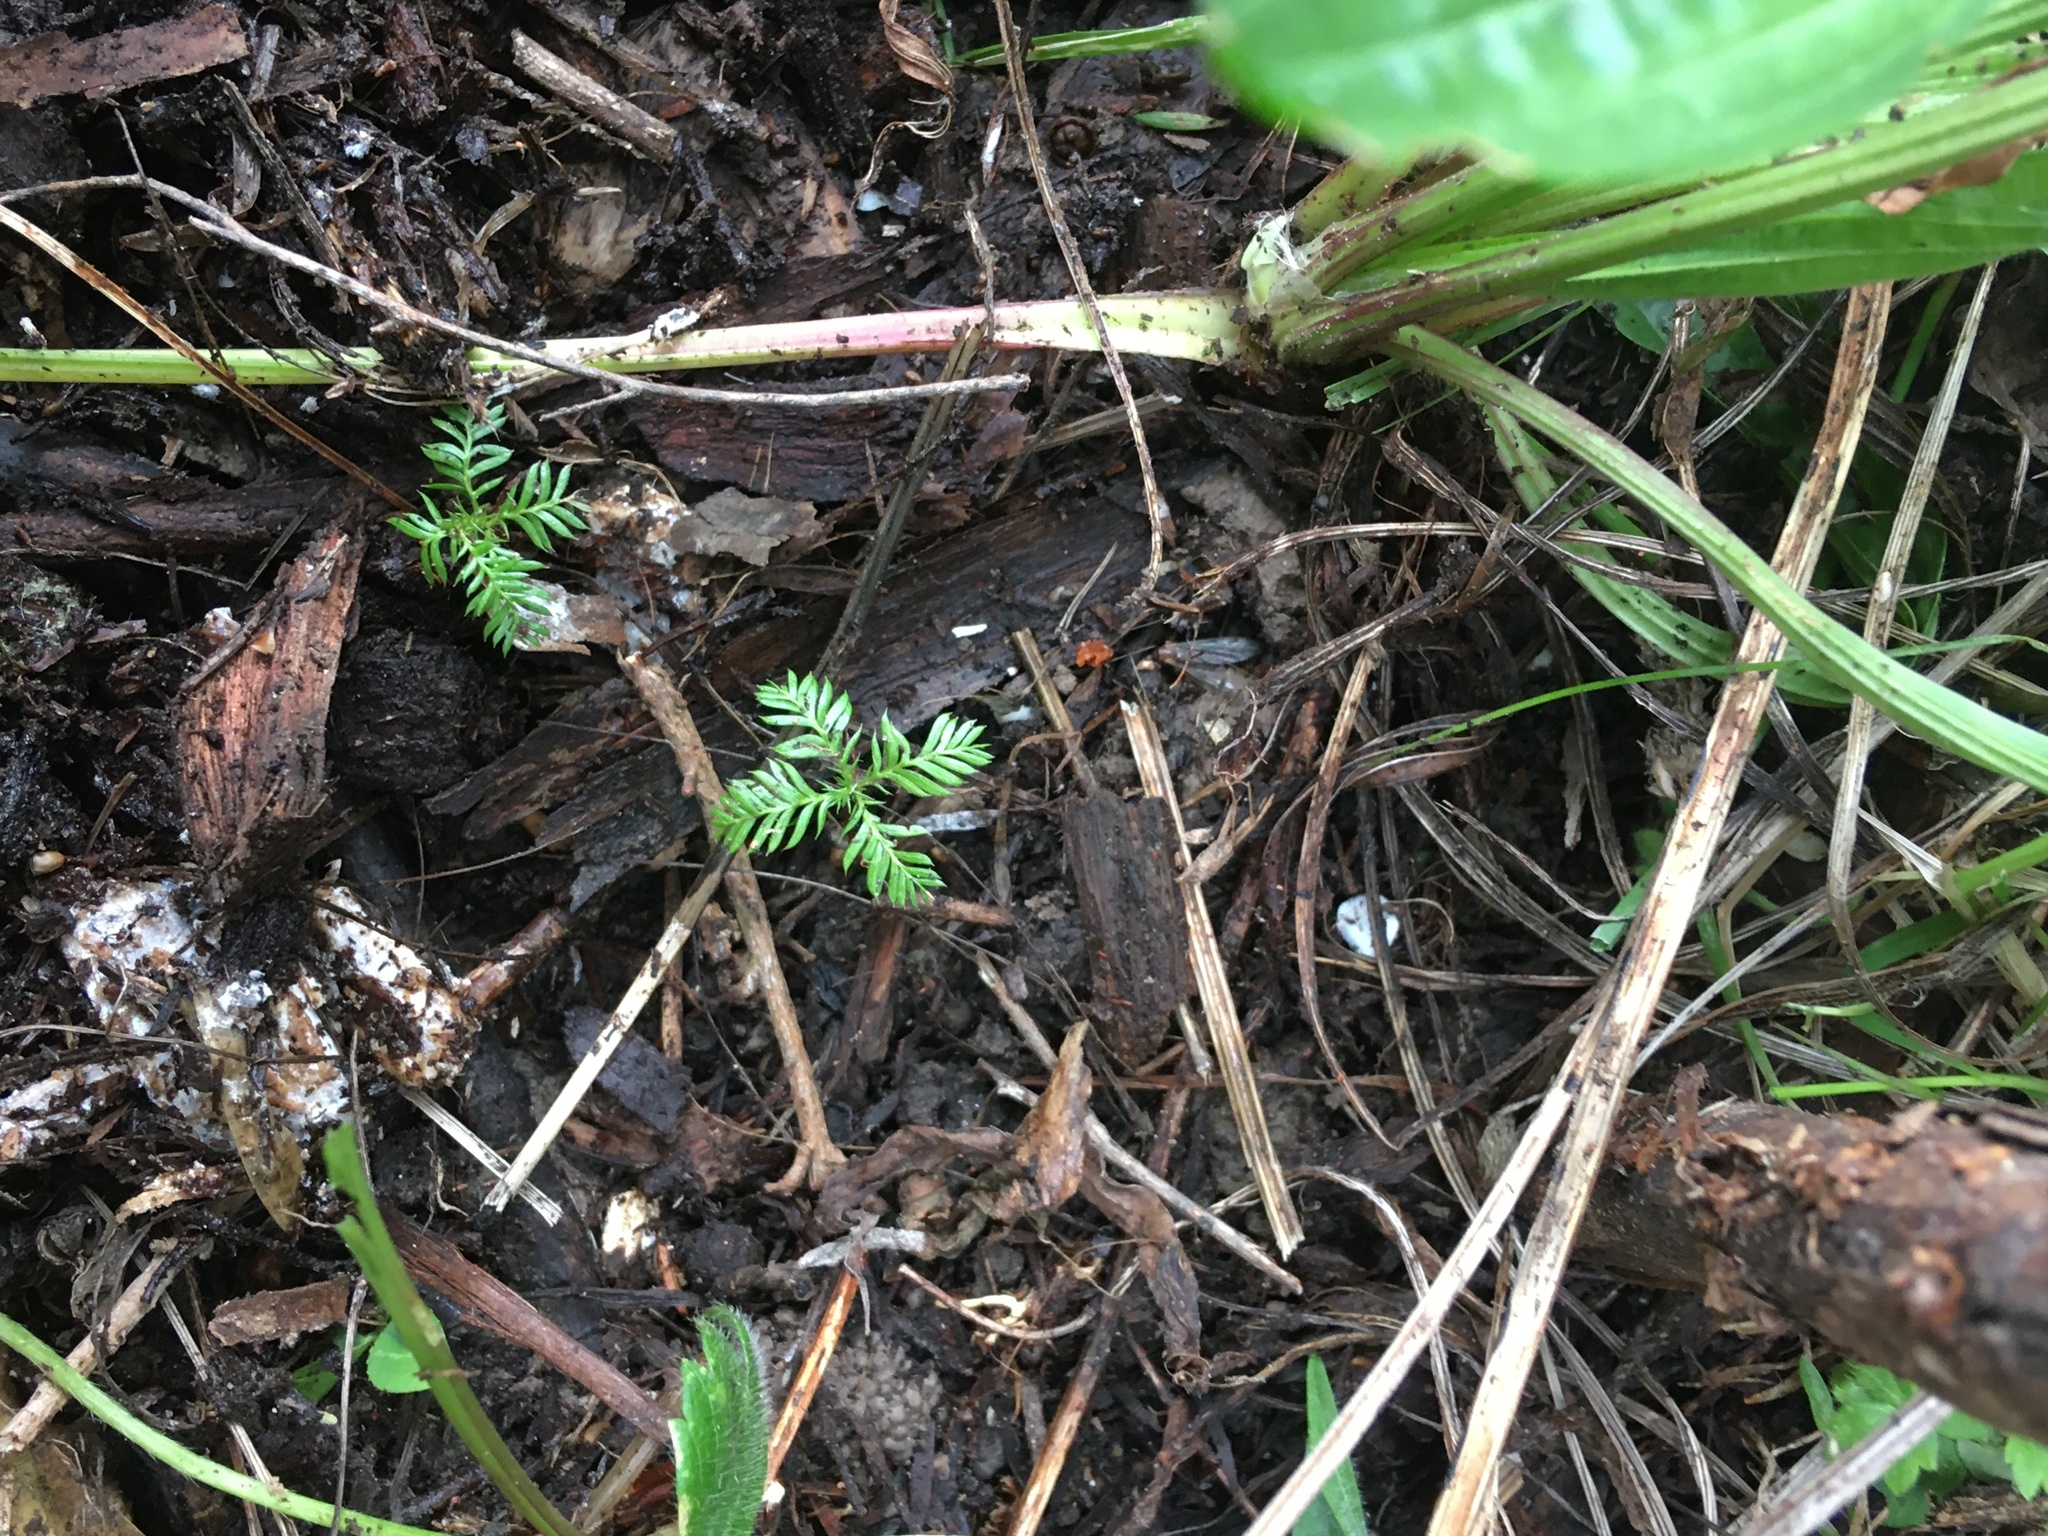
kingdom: Plantae
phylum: Tracheophyta
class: Pinopsida
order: Pinales
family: Podocarpaceae
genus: Dacrycarpus
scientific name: Dacrycarpus dacrydioides
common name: White pine
